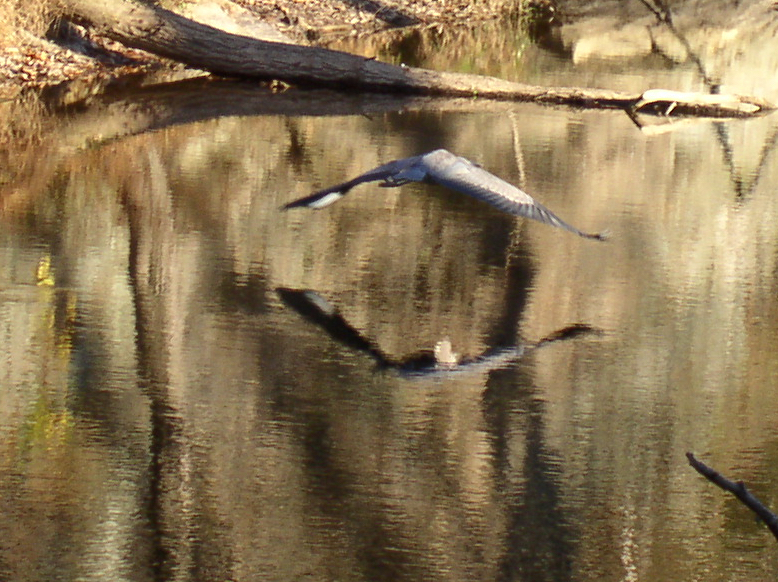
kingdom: Animalia
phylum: Chordata
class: Aves
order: Pelecaniformes
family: Ardeidae
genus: Ardea
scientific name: Ardea herodias
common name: Great blue heron
